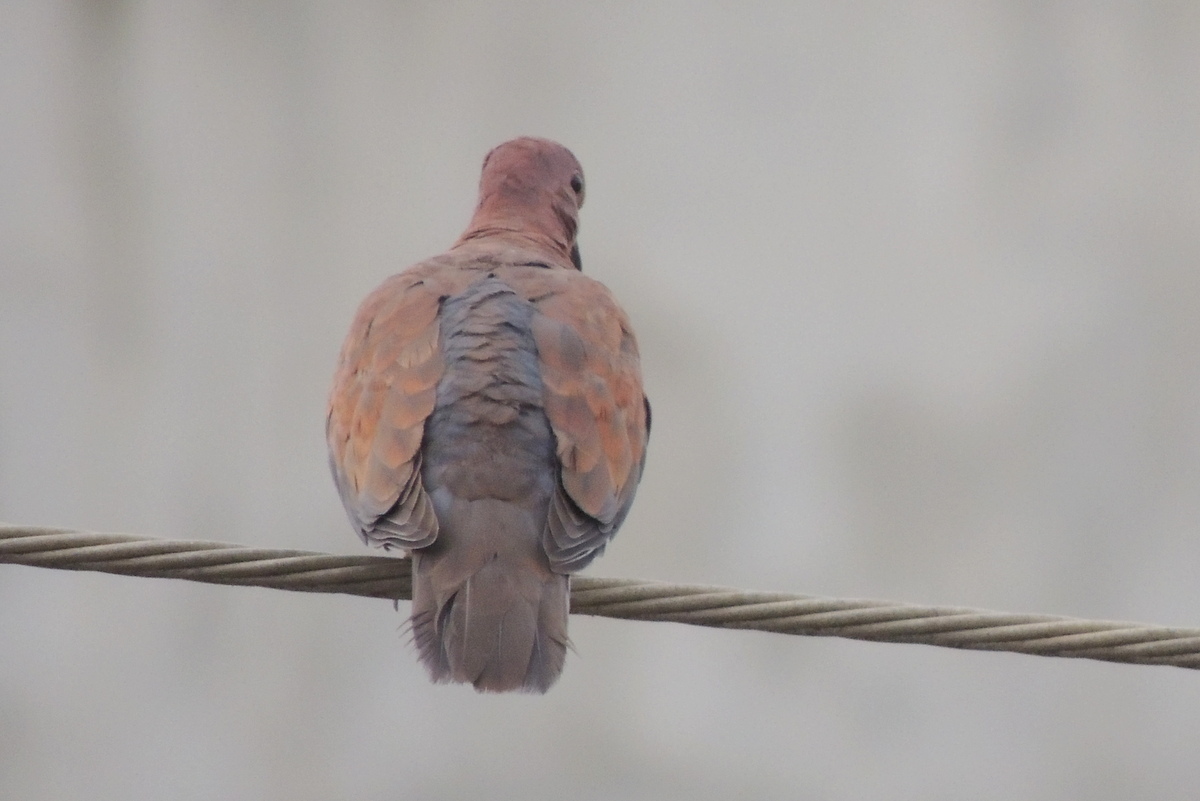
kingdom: Animalia
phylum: Chordata
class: Aves
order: Columbiformes
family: Columbidae
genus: Spilopelia
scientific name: Spilopelia senegalensis
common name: Laughing dove
